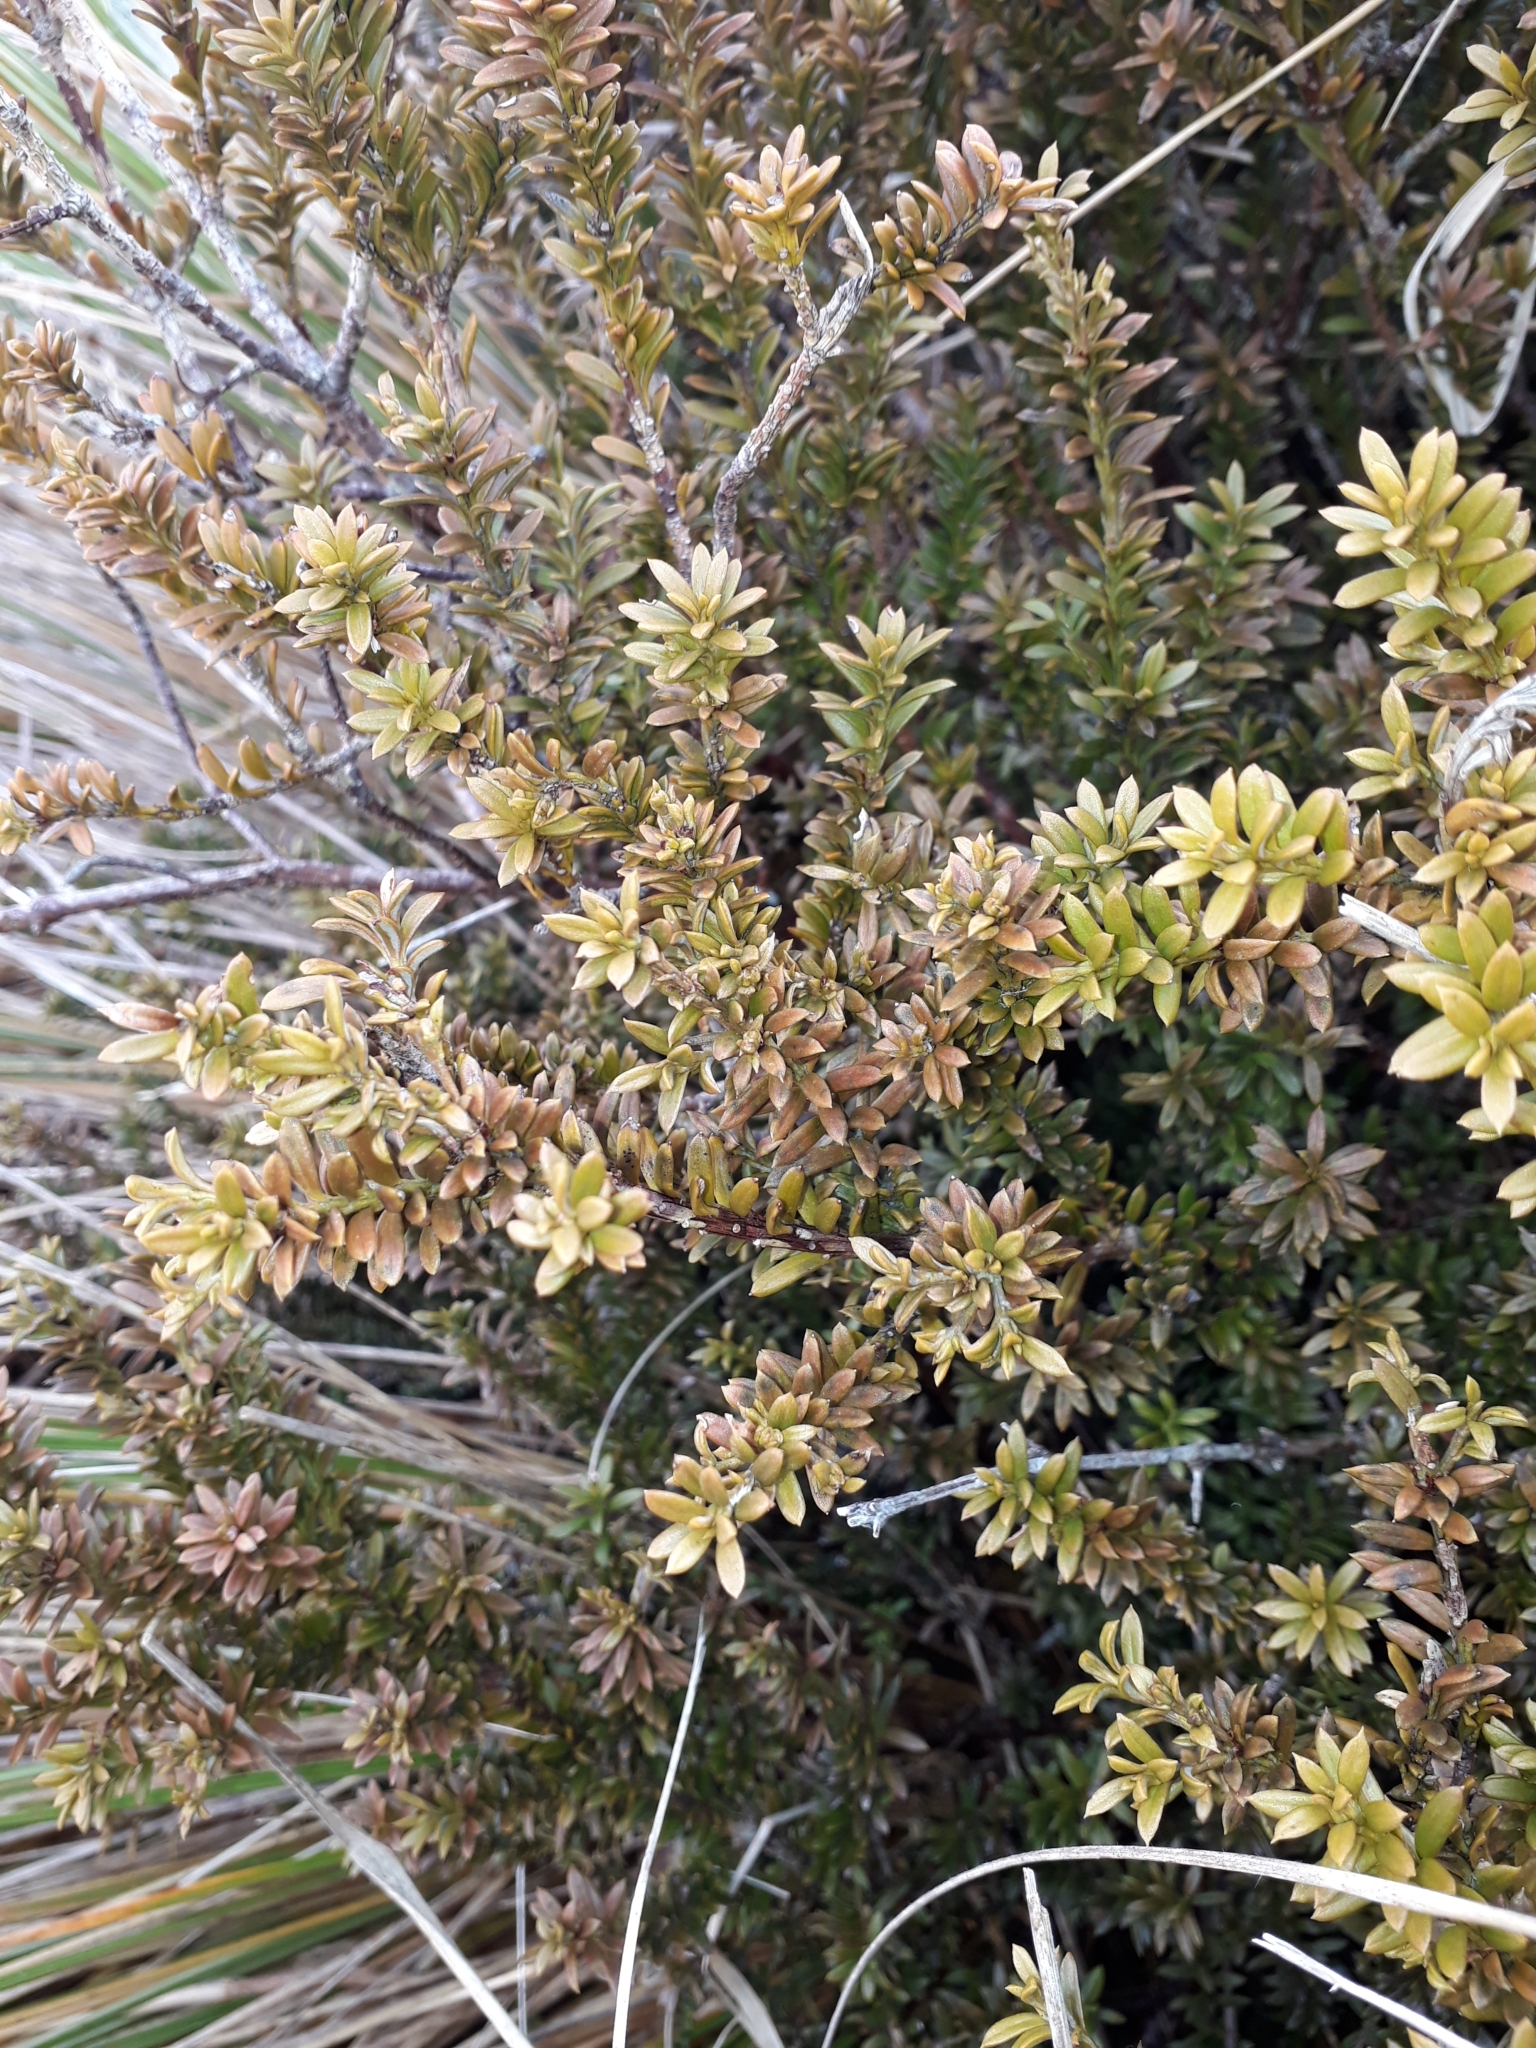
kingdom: Plantae
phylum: Tracheophyta
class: Pinopsida
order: Pinales
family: Podocarpaceae
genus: Podocarpus
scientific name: Podocarpus nivalis
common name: Alpine totara
